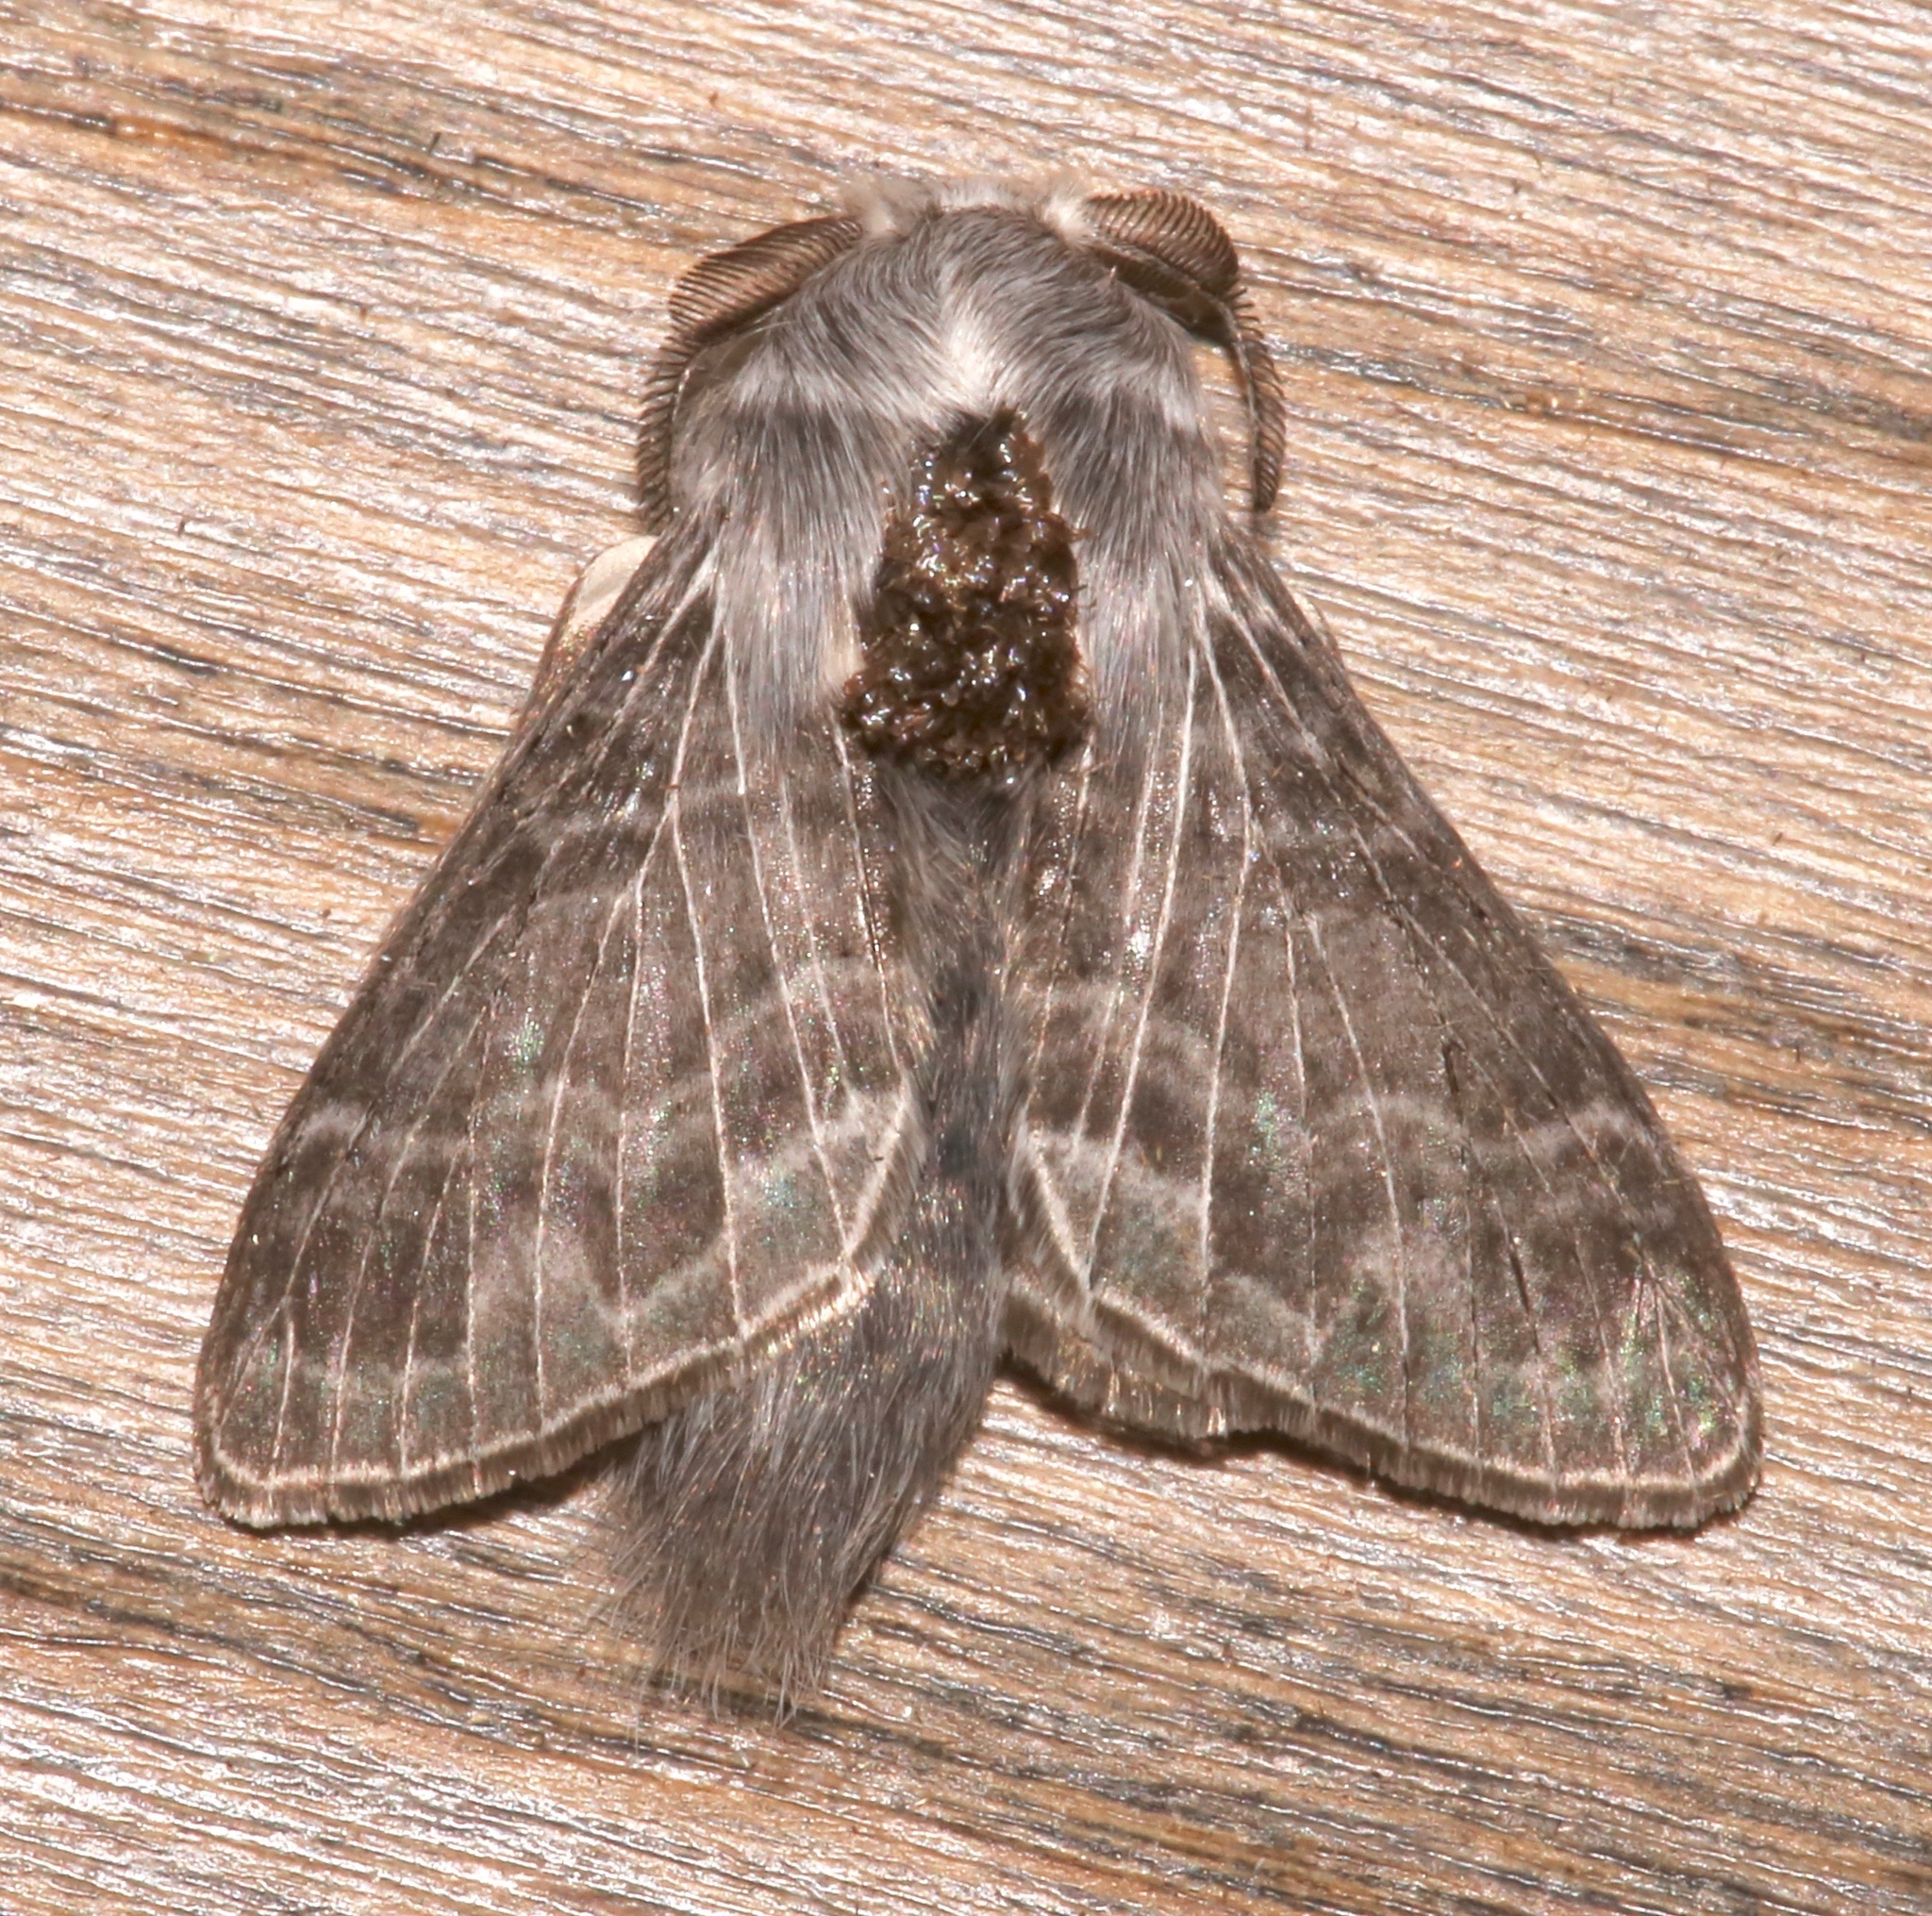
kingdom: Animalia
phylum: Arthropoda
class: Insecta
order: Lepidoptera
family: Lasiocampidae
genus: Tolype
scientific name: Tolype nigricaria
